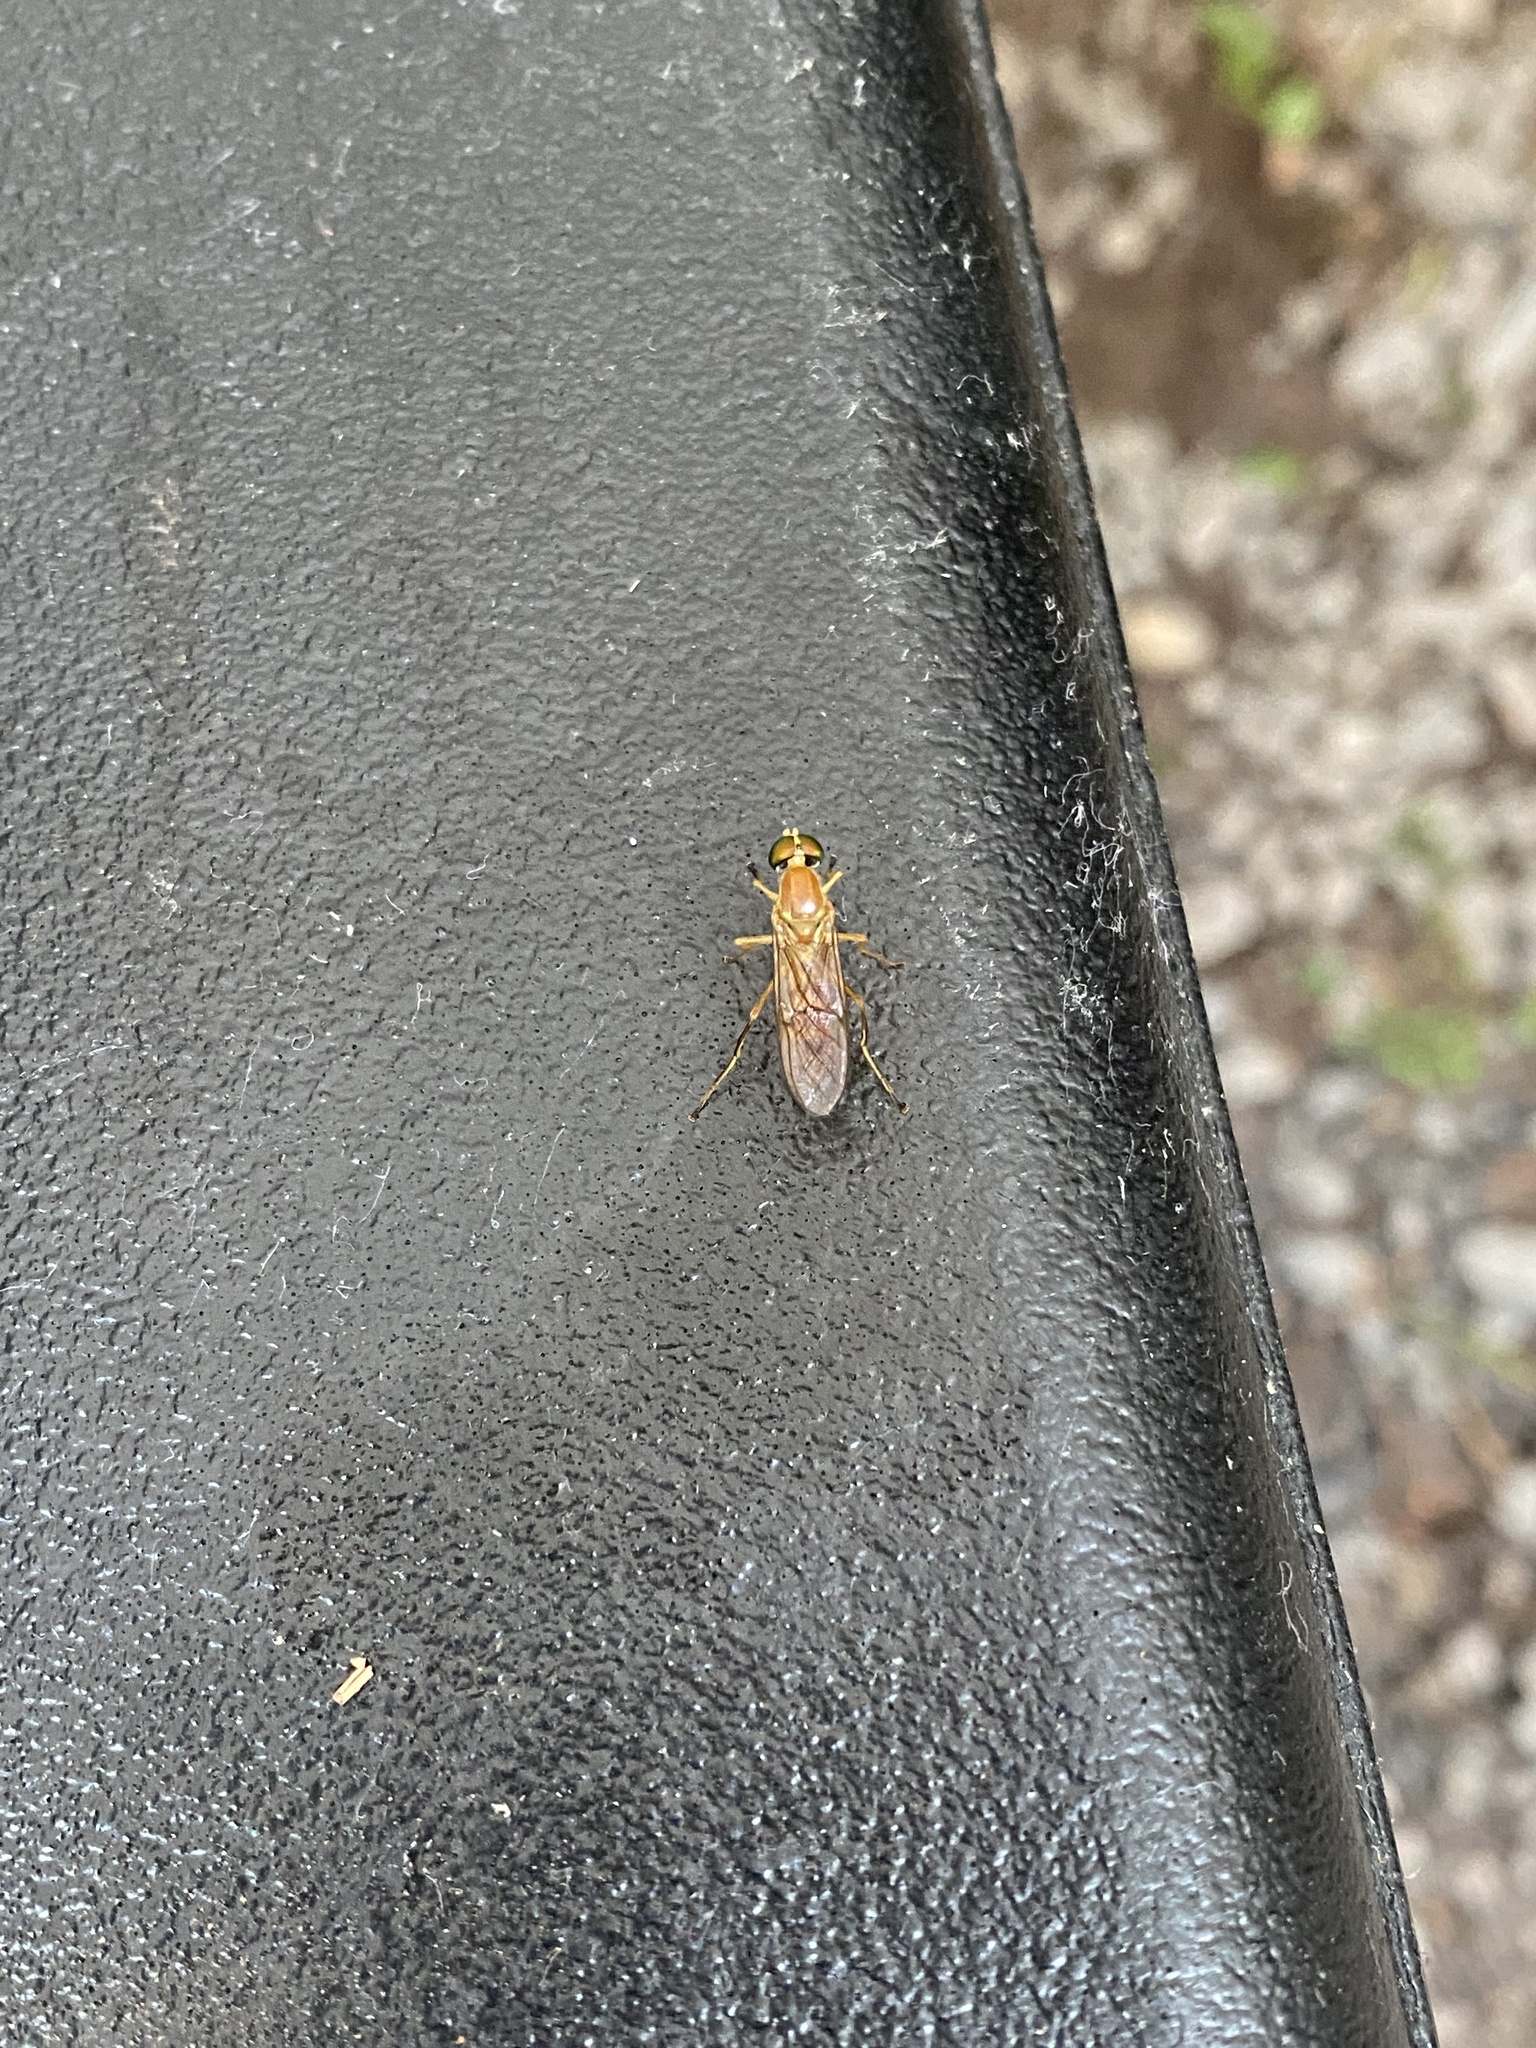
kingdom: Animalia
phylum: Arthropoda
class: Insecta
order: Diptera
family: Stratiomyidae
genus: Ptecticus
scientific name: Ptecticus trivittatus
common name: Compost fly
